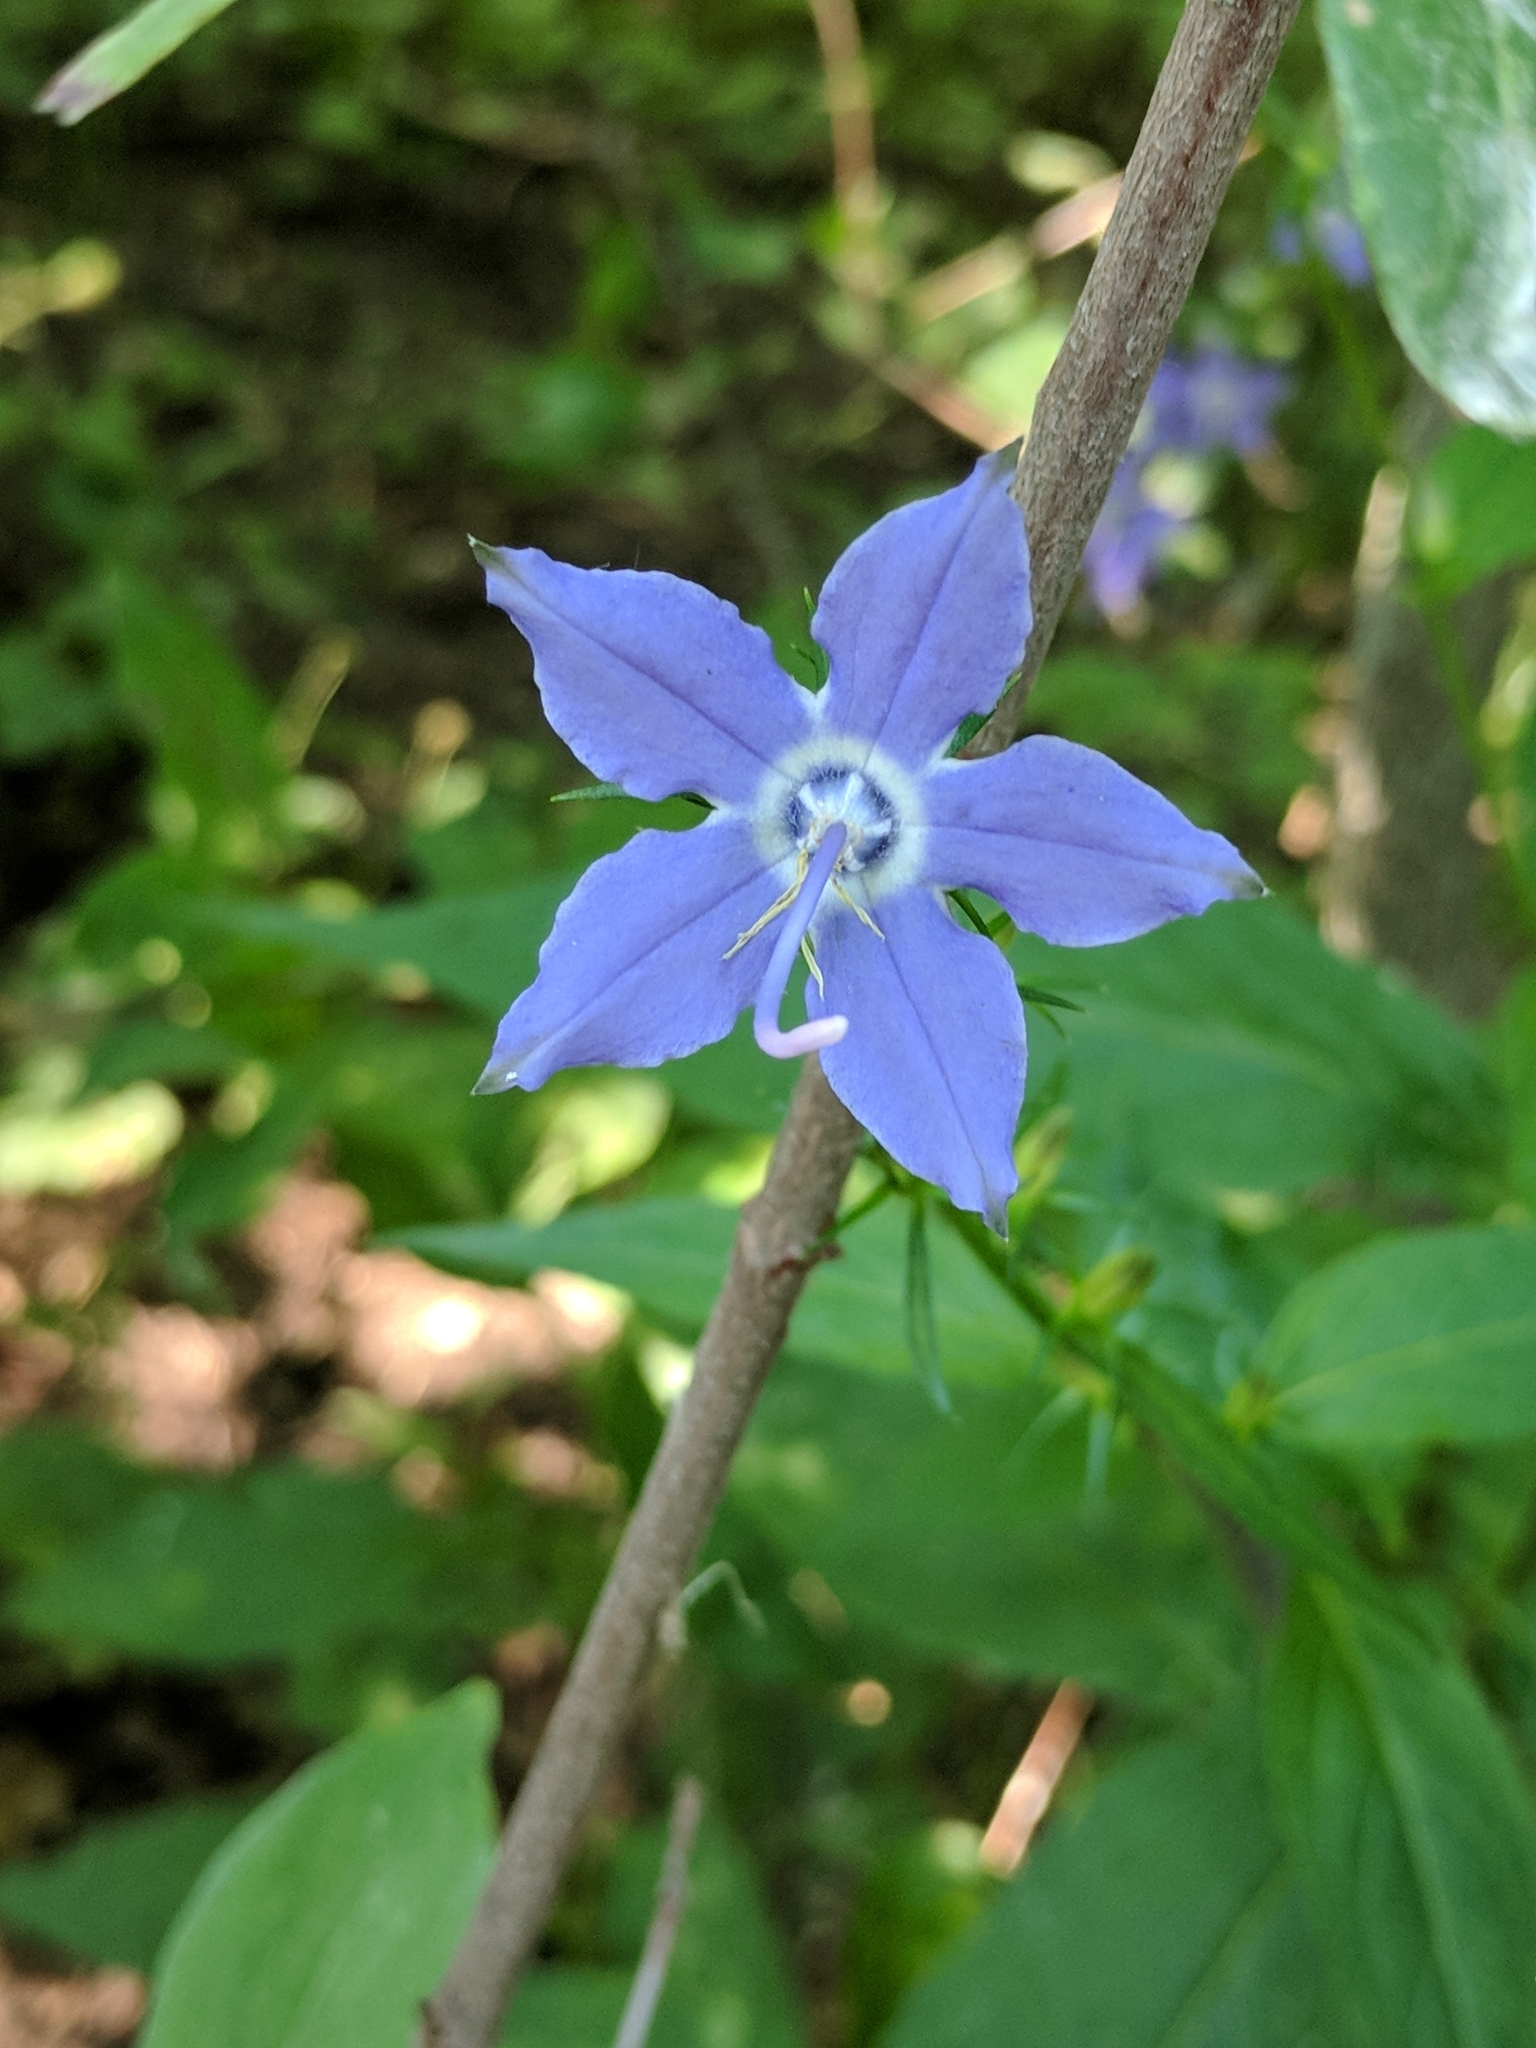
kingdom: Plantae
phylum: Tracheophyta
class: Magnoliopsida
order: Asterales
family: Campanulaceae
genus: Campanulastrum
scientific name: Campanulastrum americanum
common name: American bellflower
